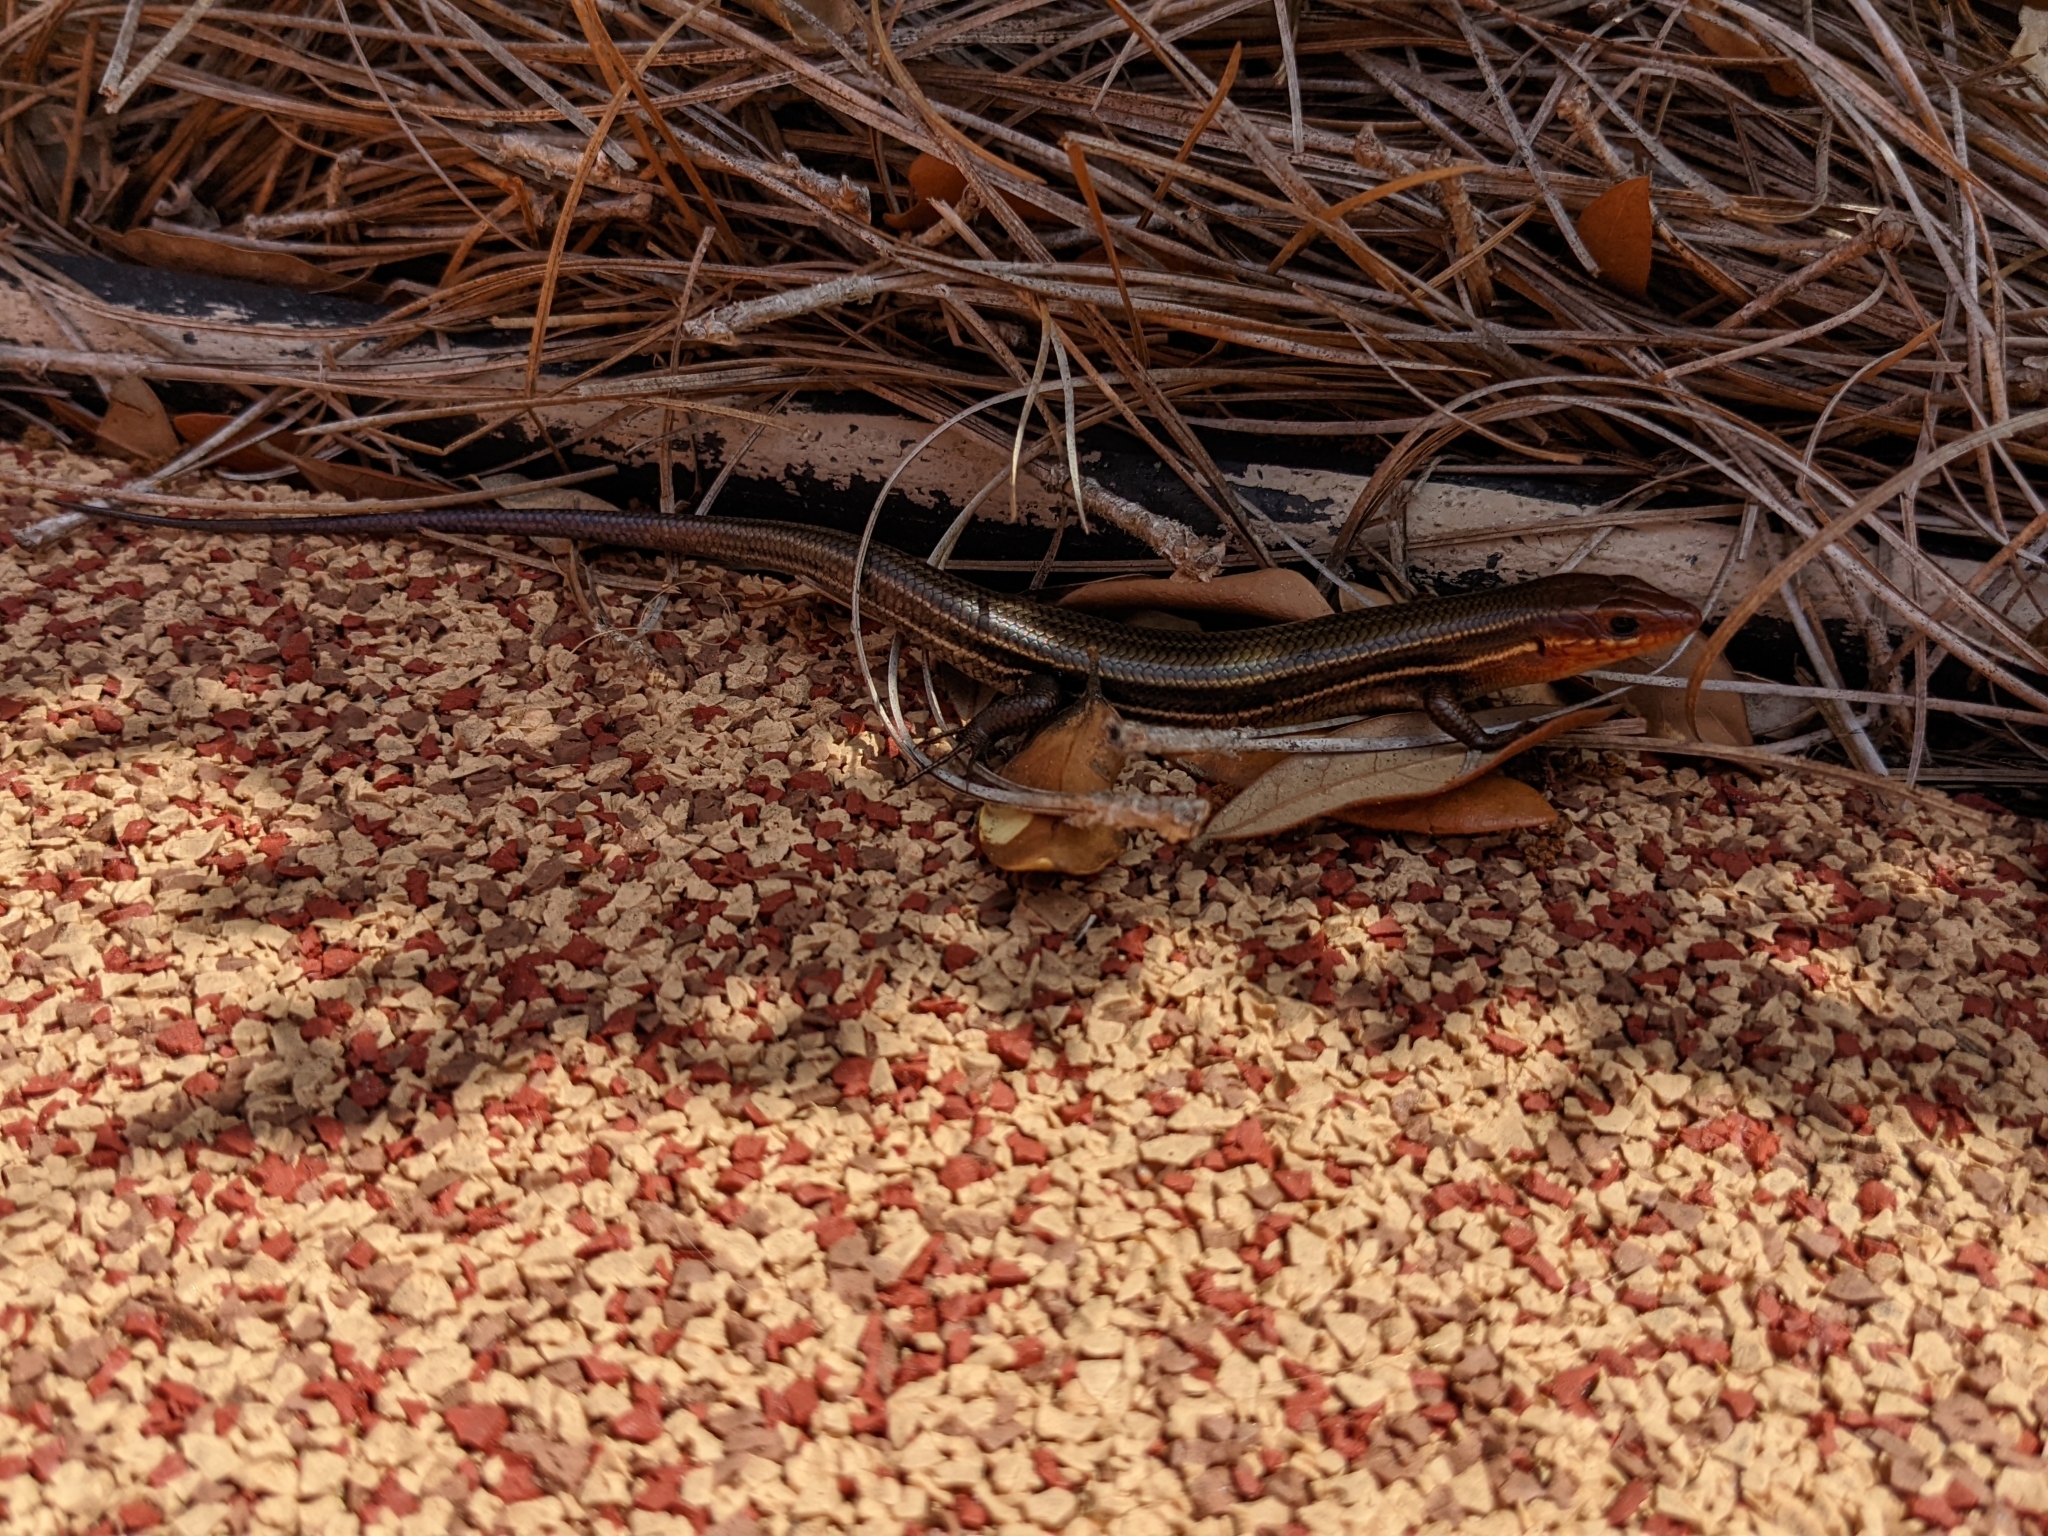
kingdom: Animalia
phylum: Chordata
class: Squamata
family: Scincidae
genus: Plestiodon
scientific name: Plestiodon inexpectatus
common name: Southeastern five-lined skink
